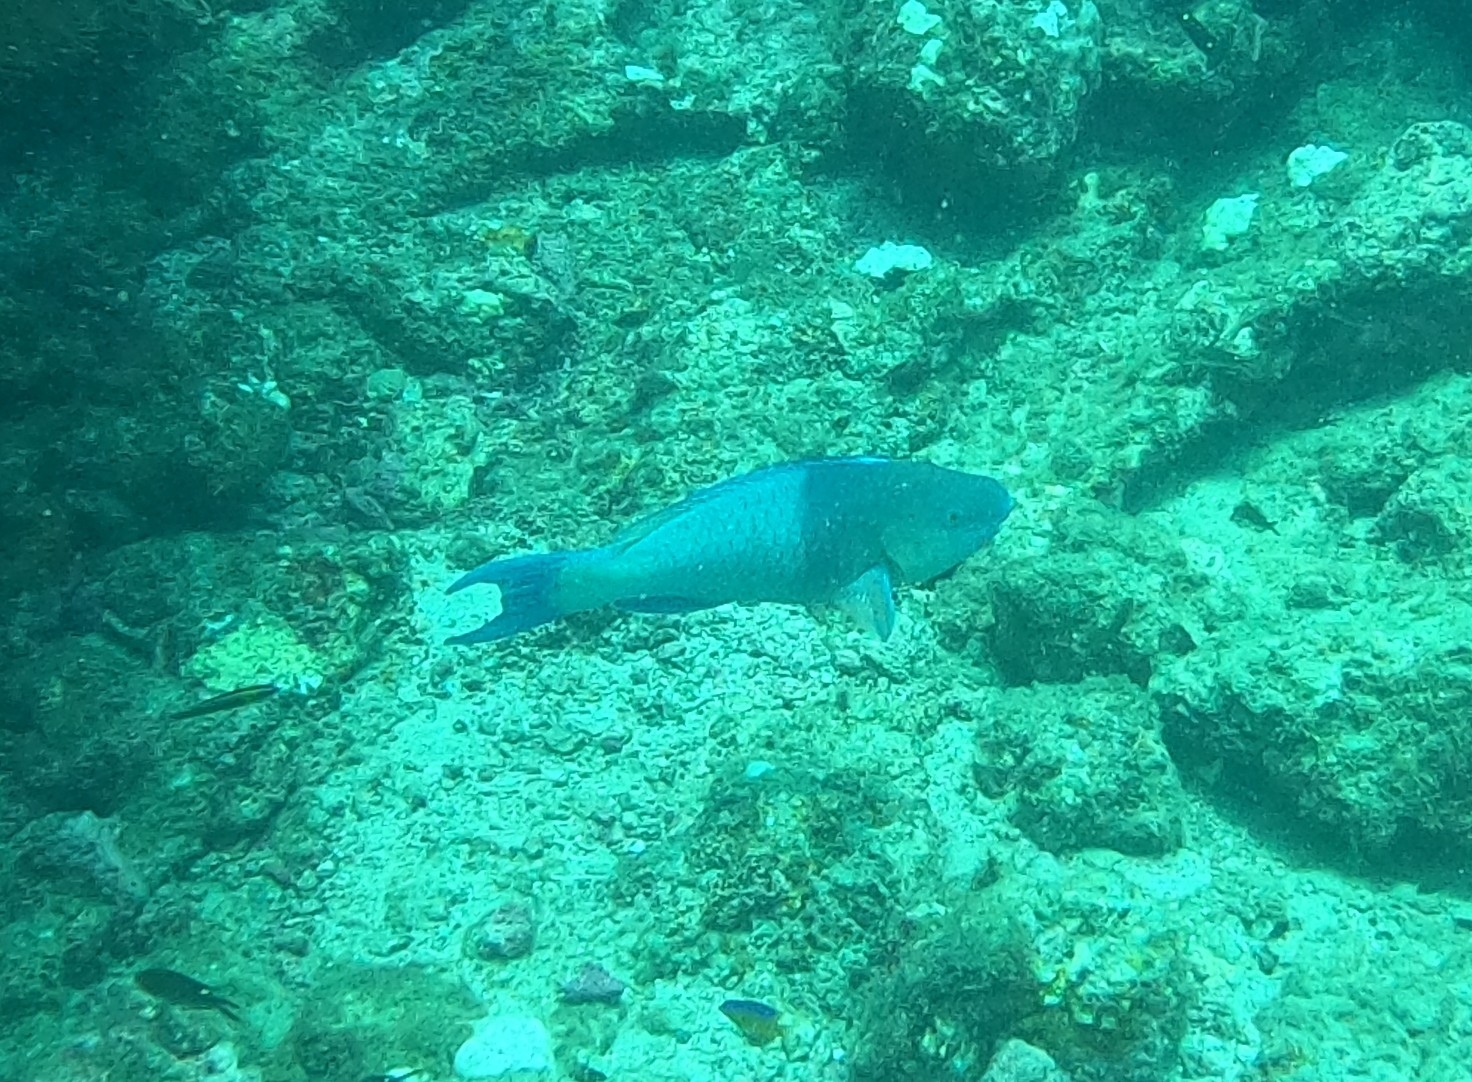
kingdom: Animalia
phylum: Chordata
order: Perciformes
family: Scaridae
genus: Scarus
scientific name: Scarus rubroviolaceus
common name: Ember parrotfish
